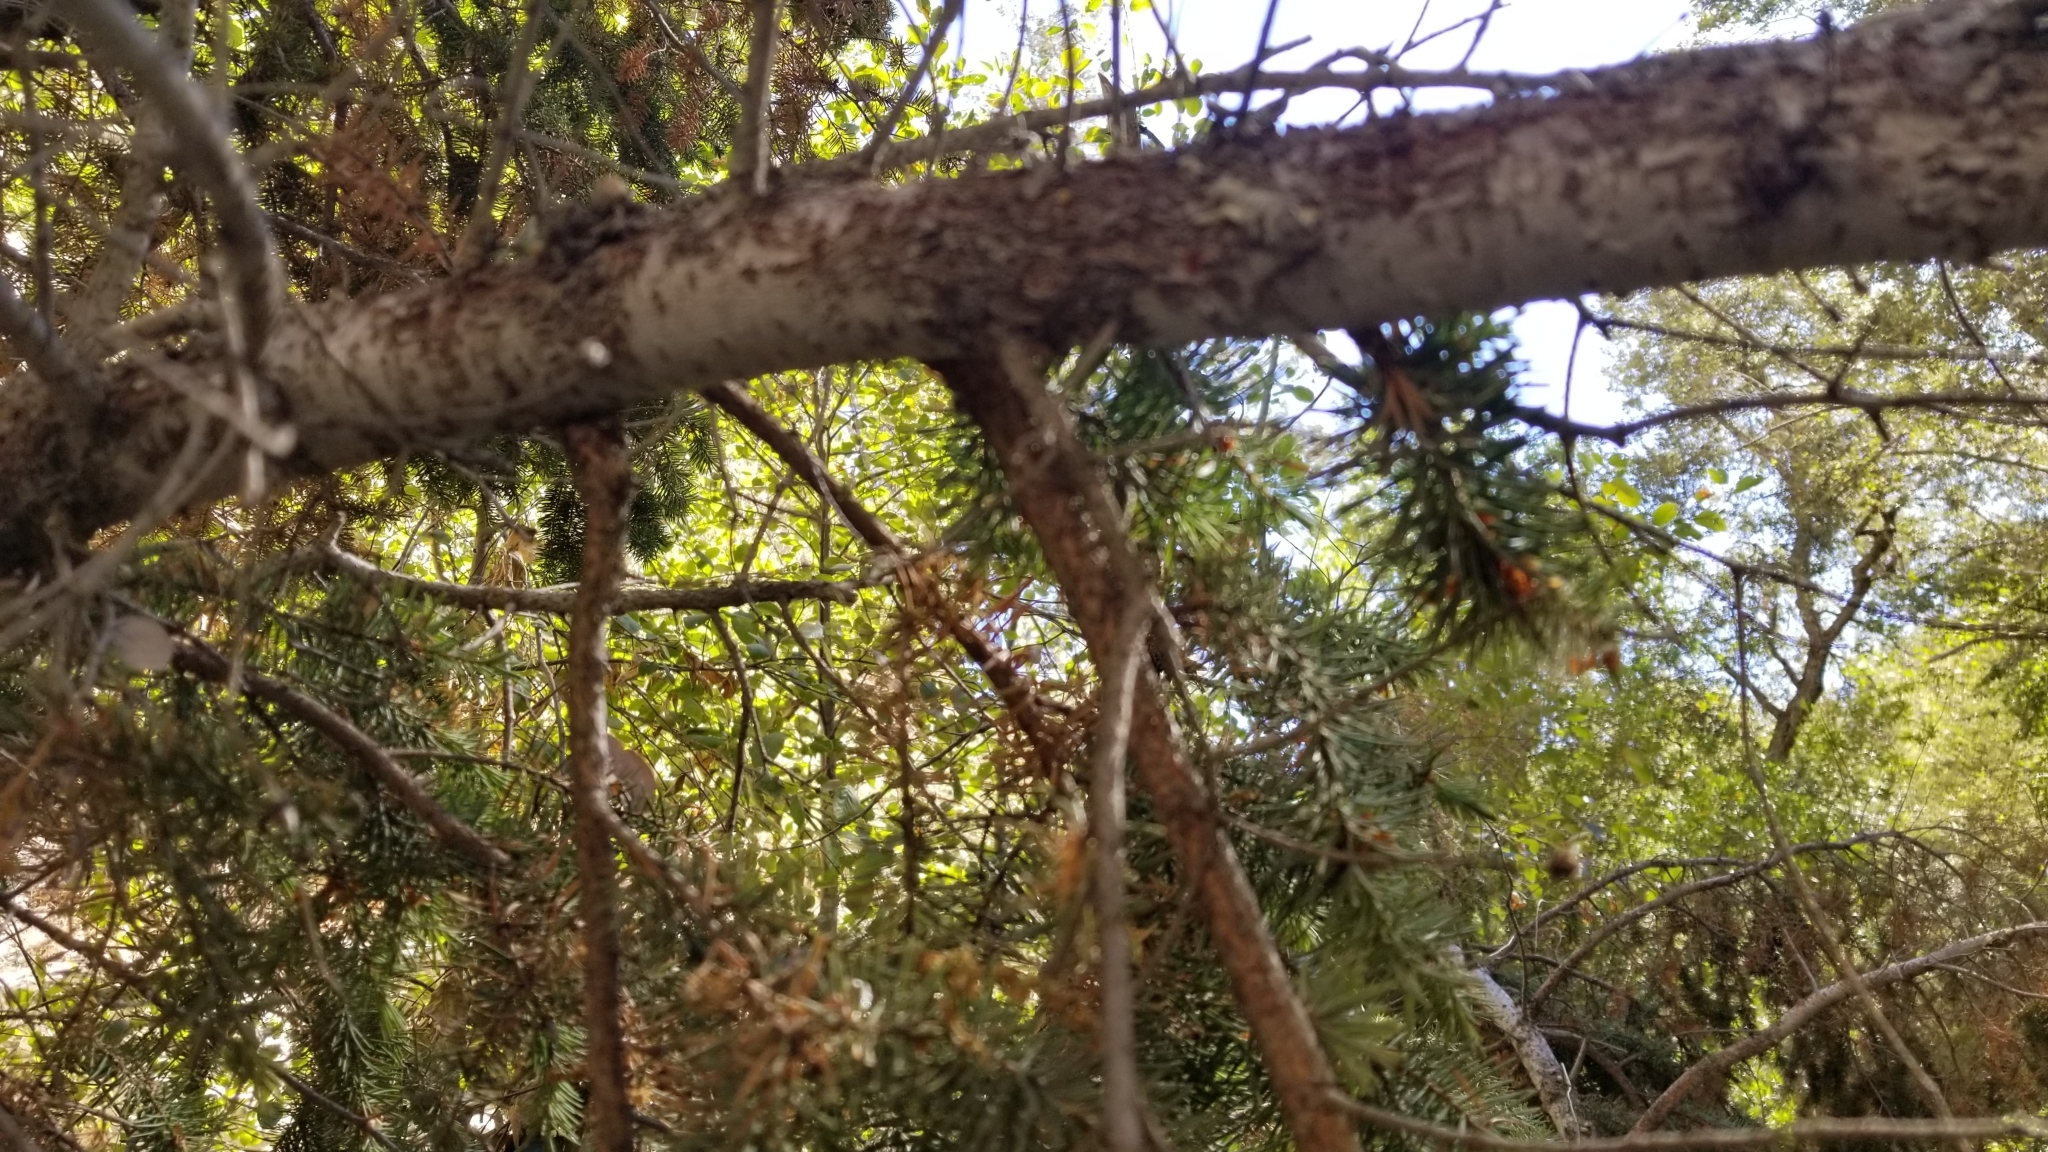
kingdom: Plantae
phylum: Tracheophyta
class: Pinopsida
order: Pinales
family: Pinaceae
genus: Pseudotsuga
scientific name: Pseudotsuga macrocarpa
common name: Big-cone douglas-fir
